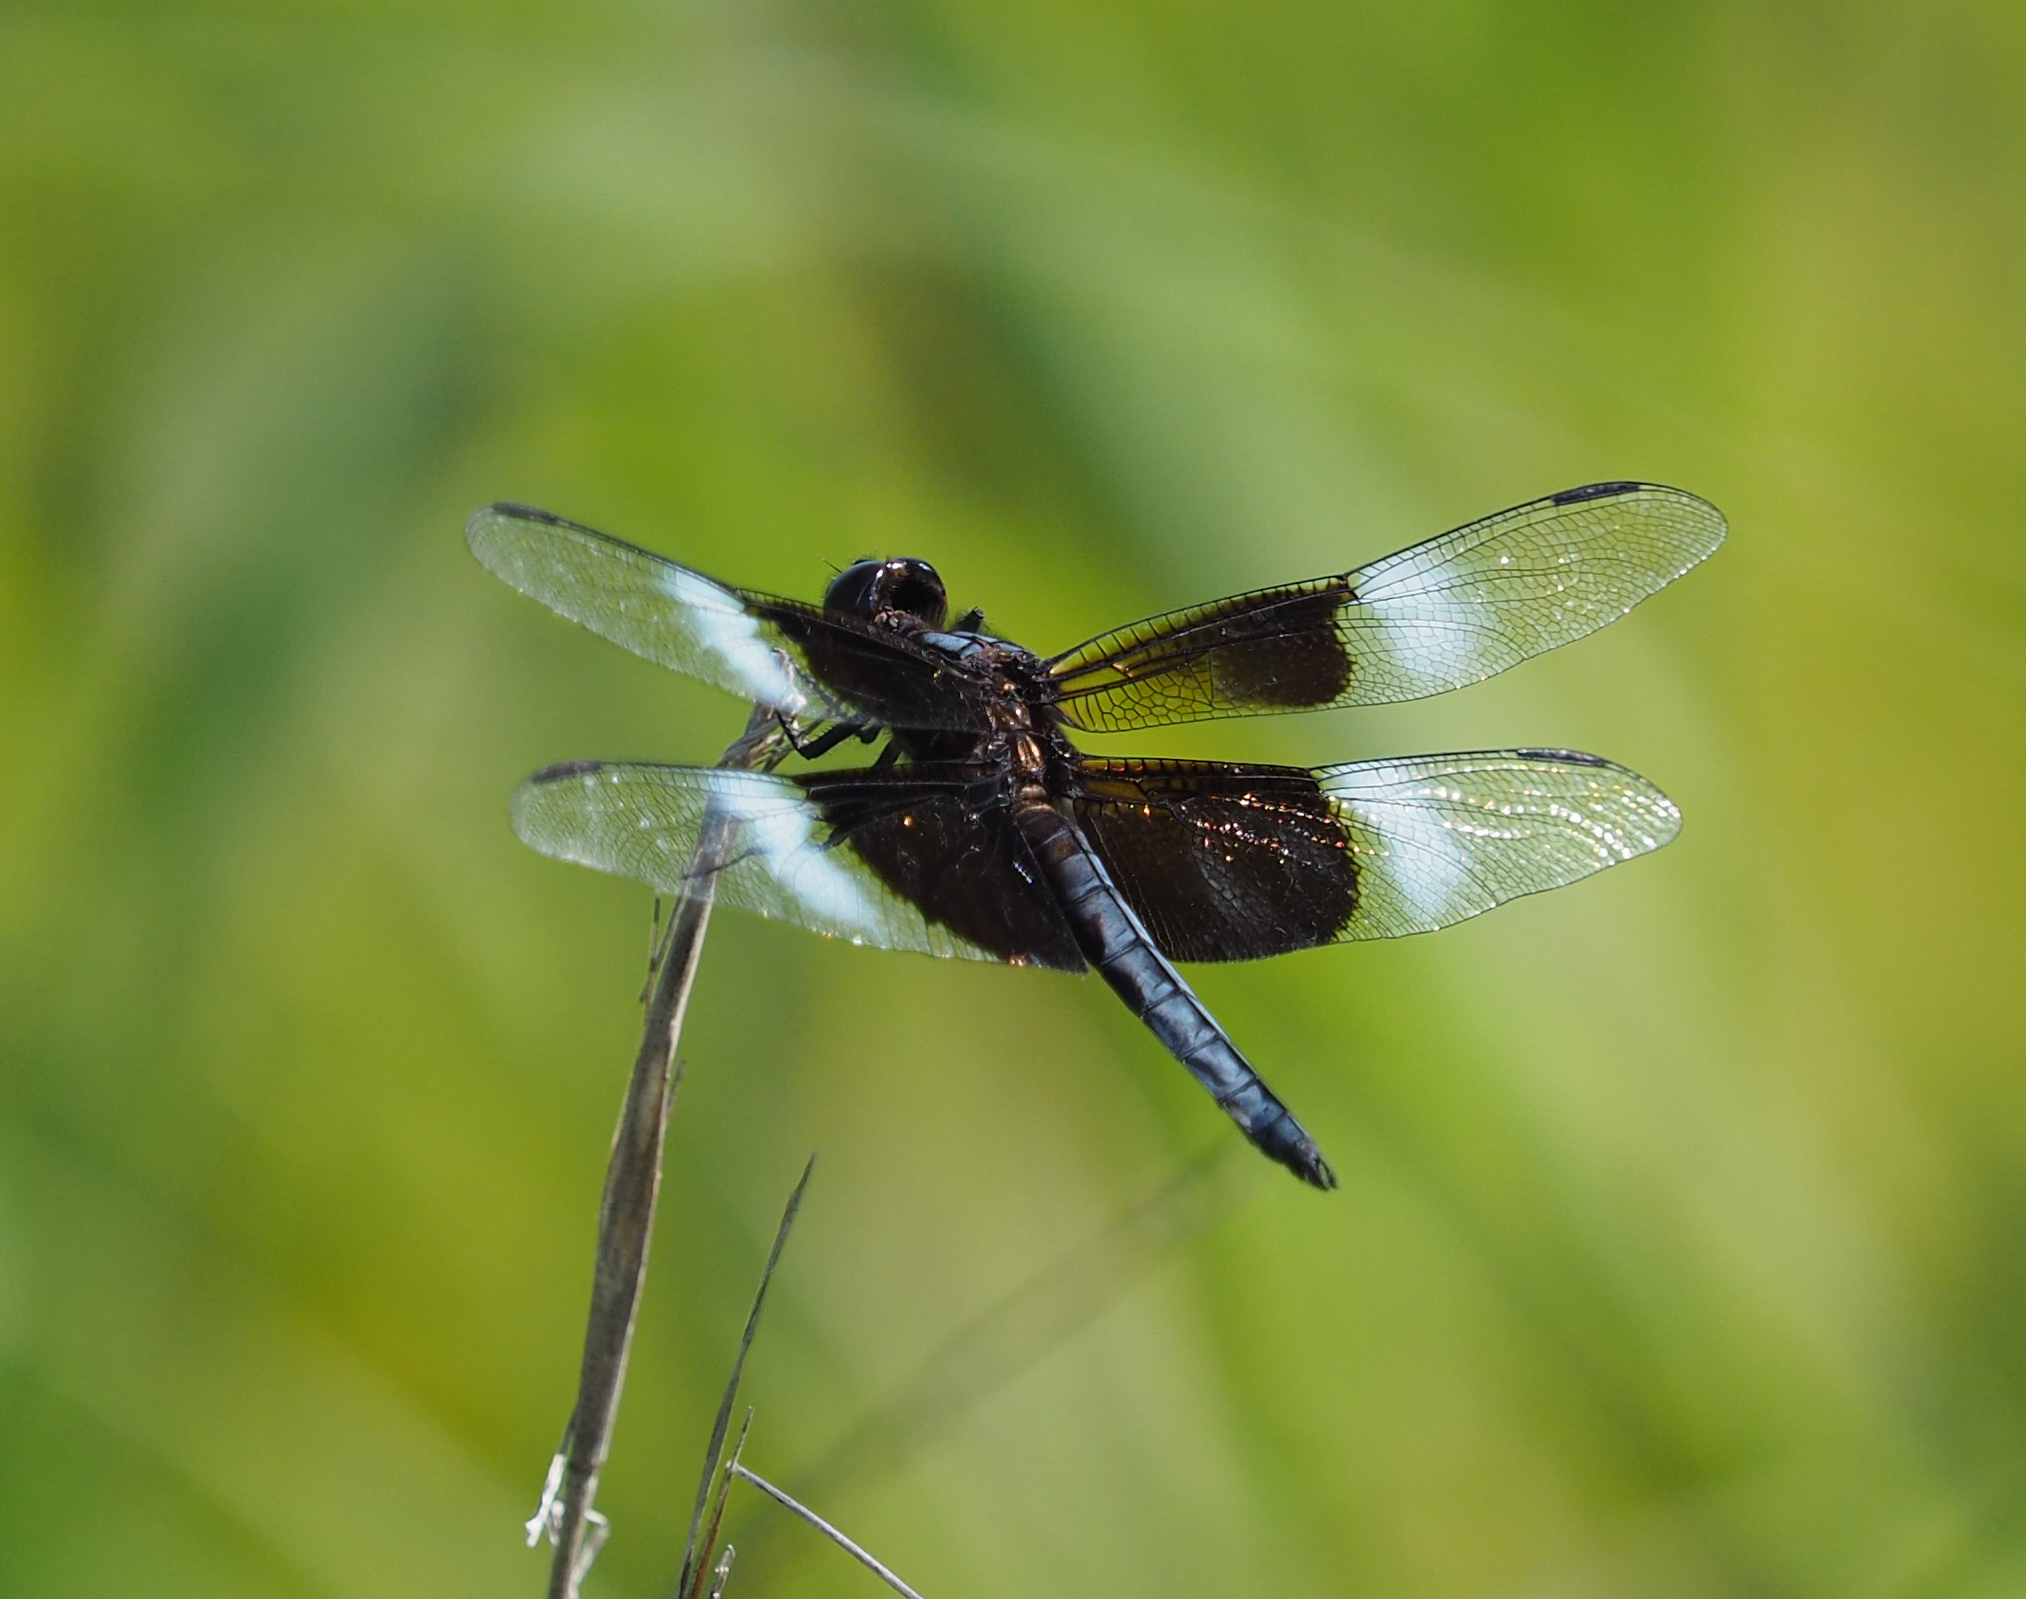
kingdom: Animalia
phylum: Arthropoda
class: Insecta
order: Odonata
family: Libellulidae
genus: Libellula
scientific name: Libellula luctuosa
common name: Widow skimmer
